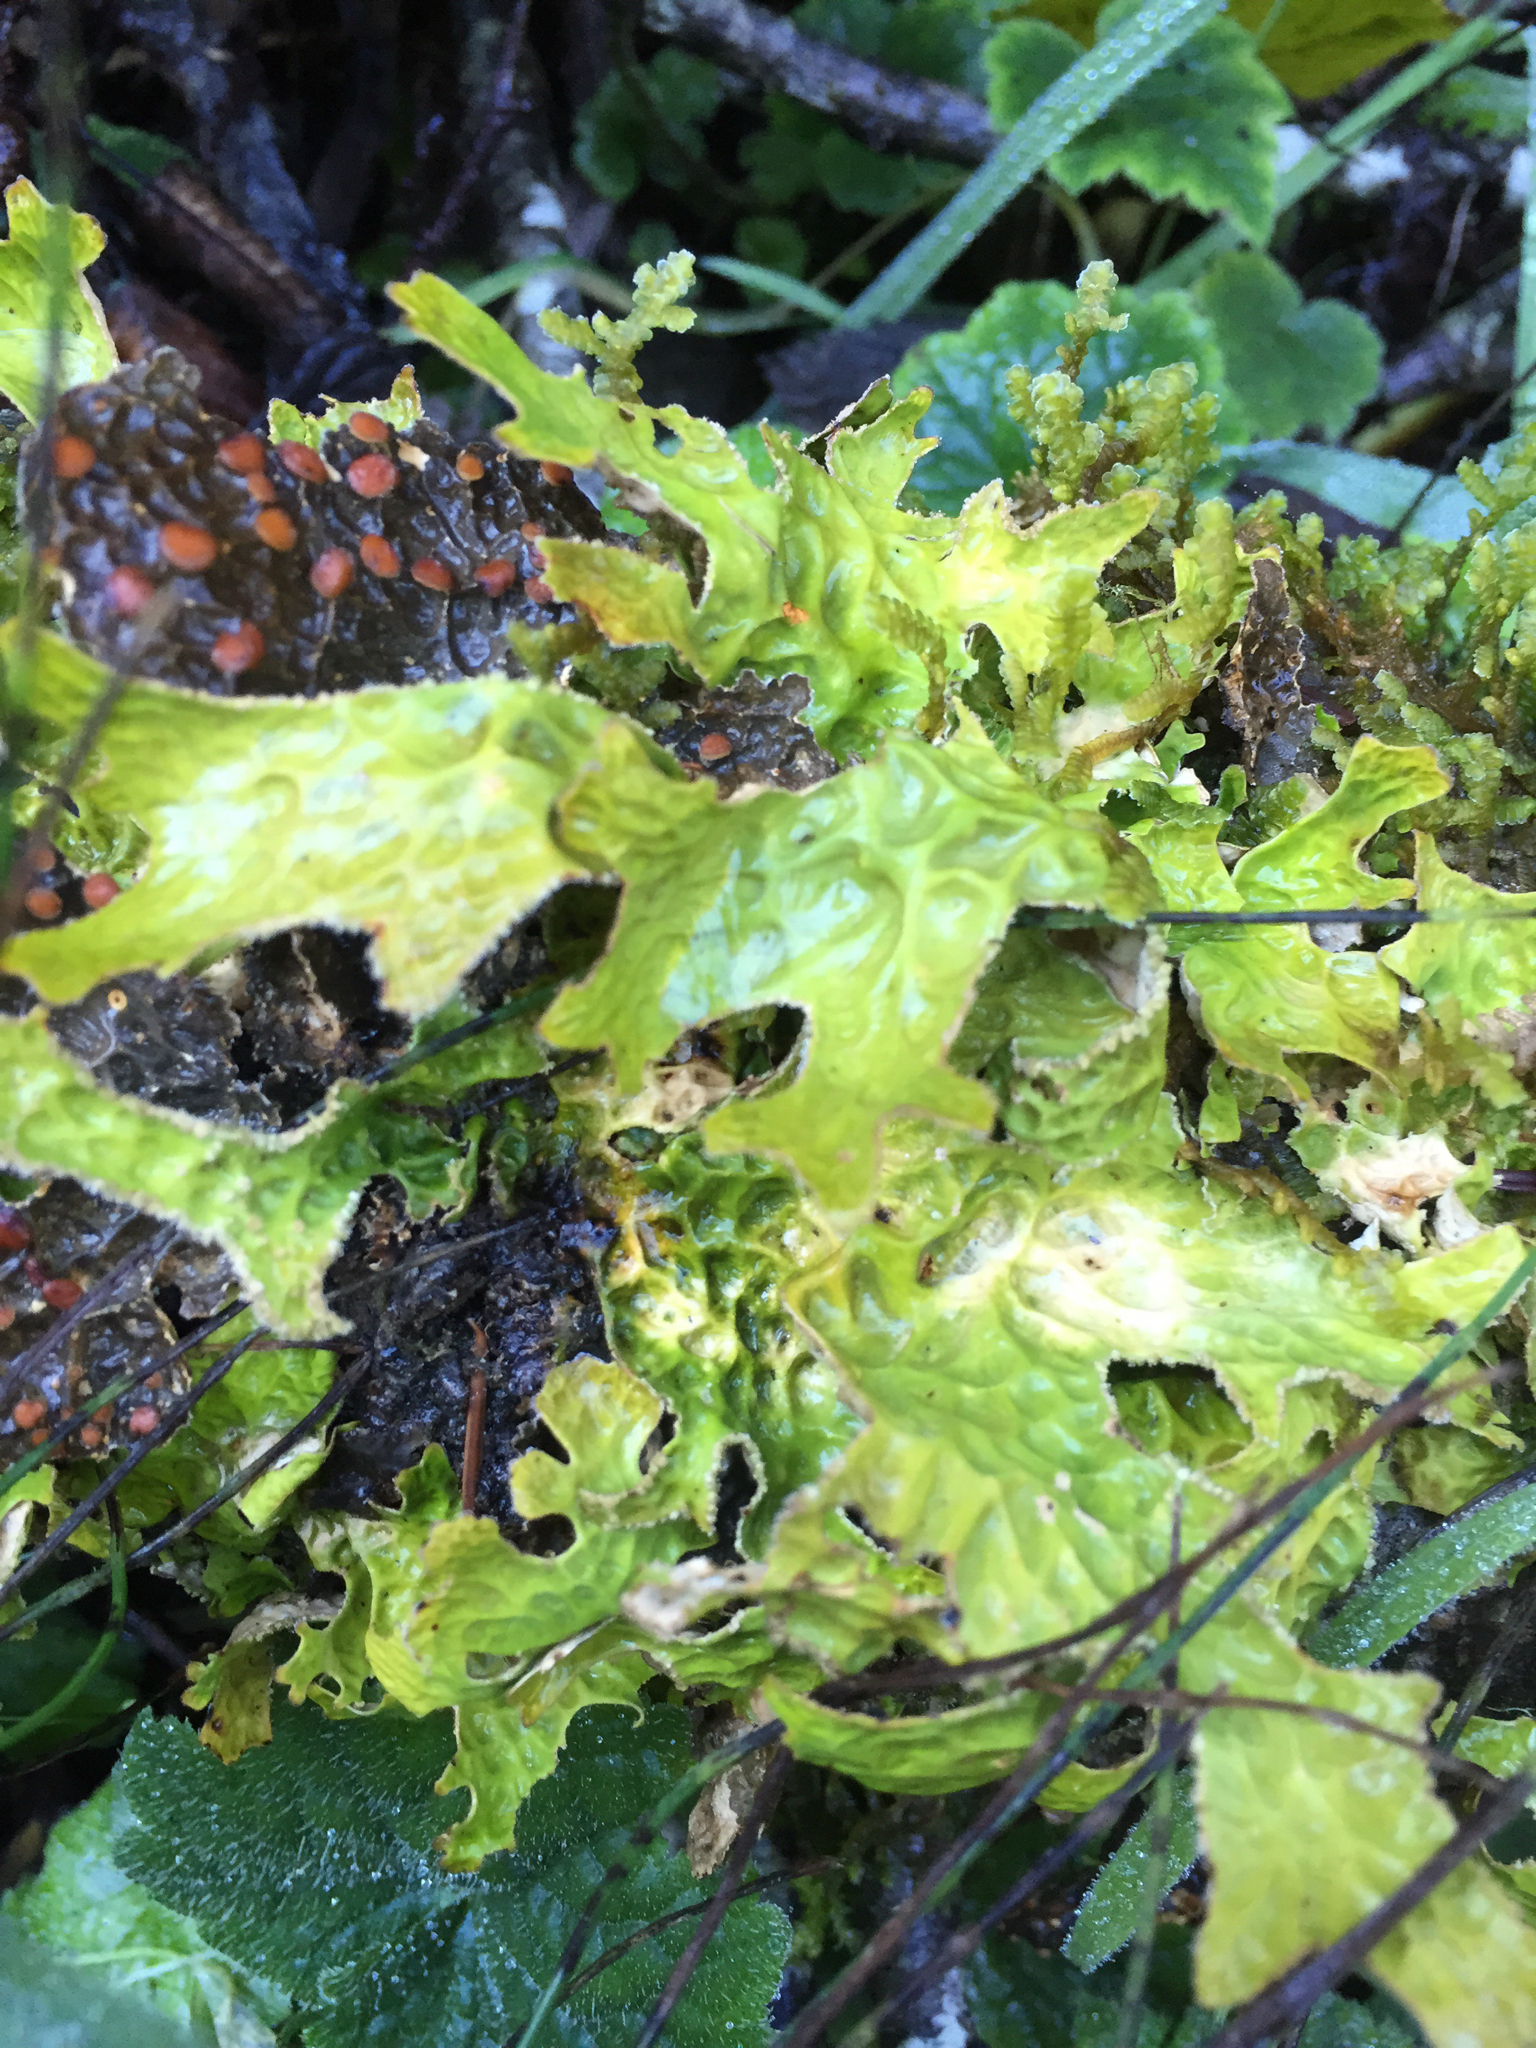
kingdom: Fungi
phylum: Ascomycota
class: Lecanoromycetes
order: Peltigerales
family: Lobariaceae
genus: Lobaria
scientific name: Lobaria pulmonaria
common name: Lungwort
